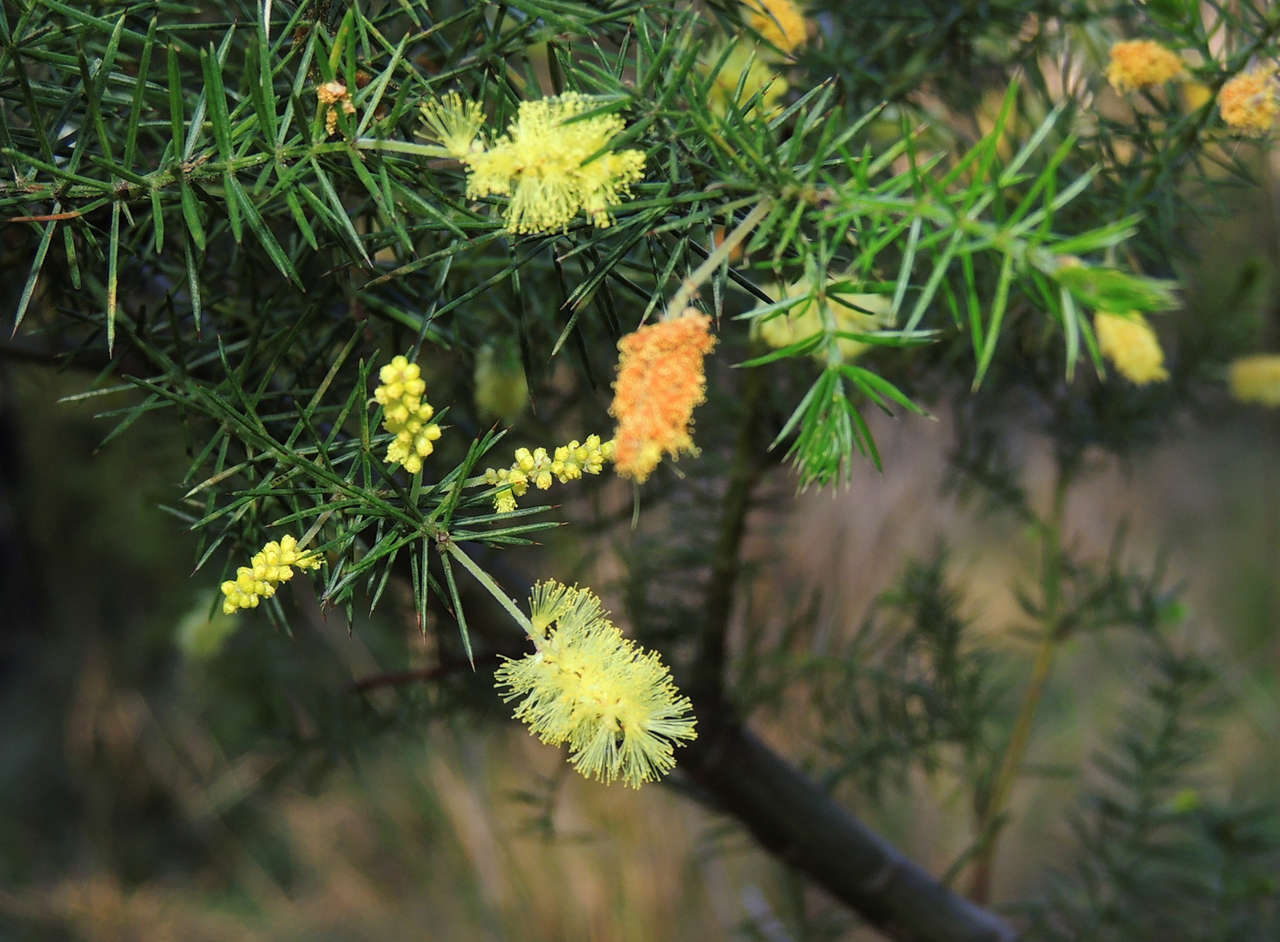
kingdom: Plantae
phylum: Tracheophyta
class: Magnoliopsida
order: Fabales
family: Fabaceae
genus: Acacia
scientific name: Acacia verticillata
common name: Prickly moses
